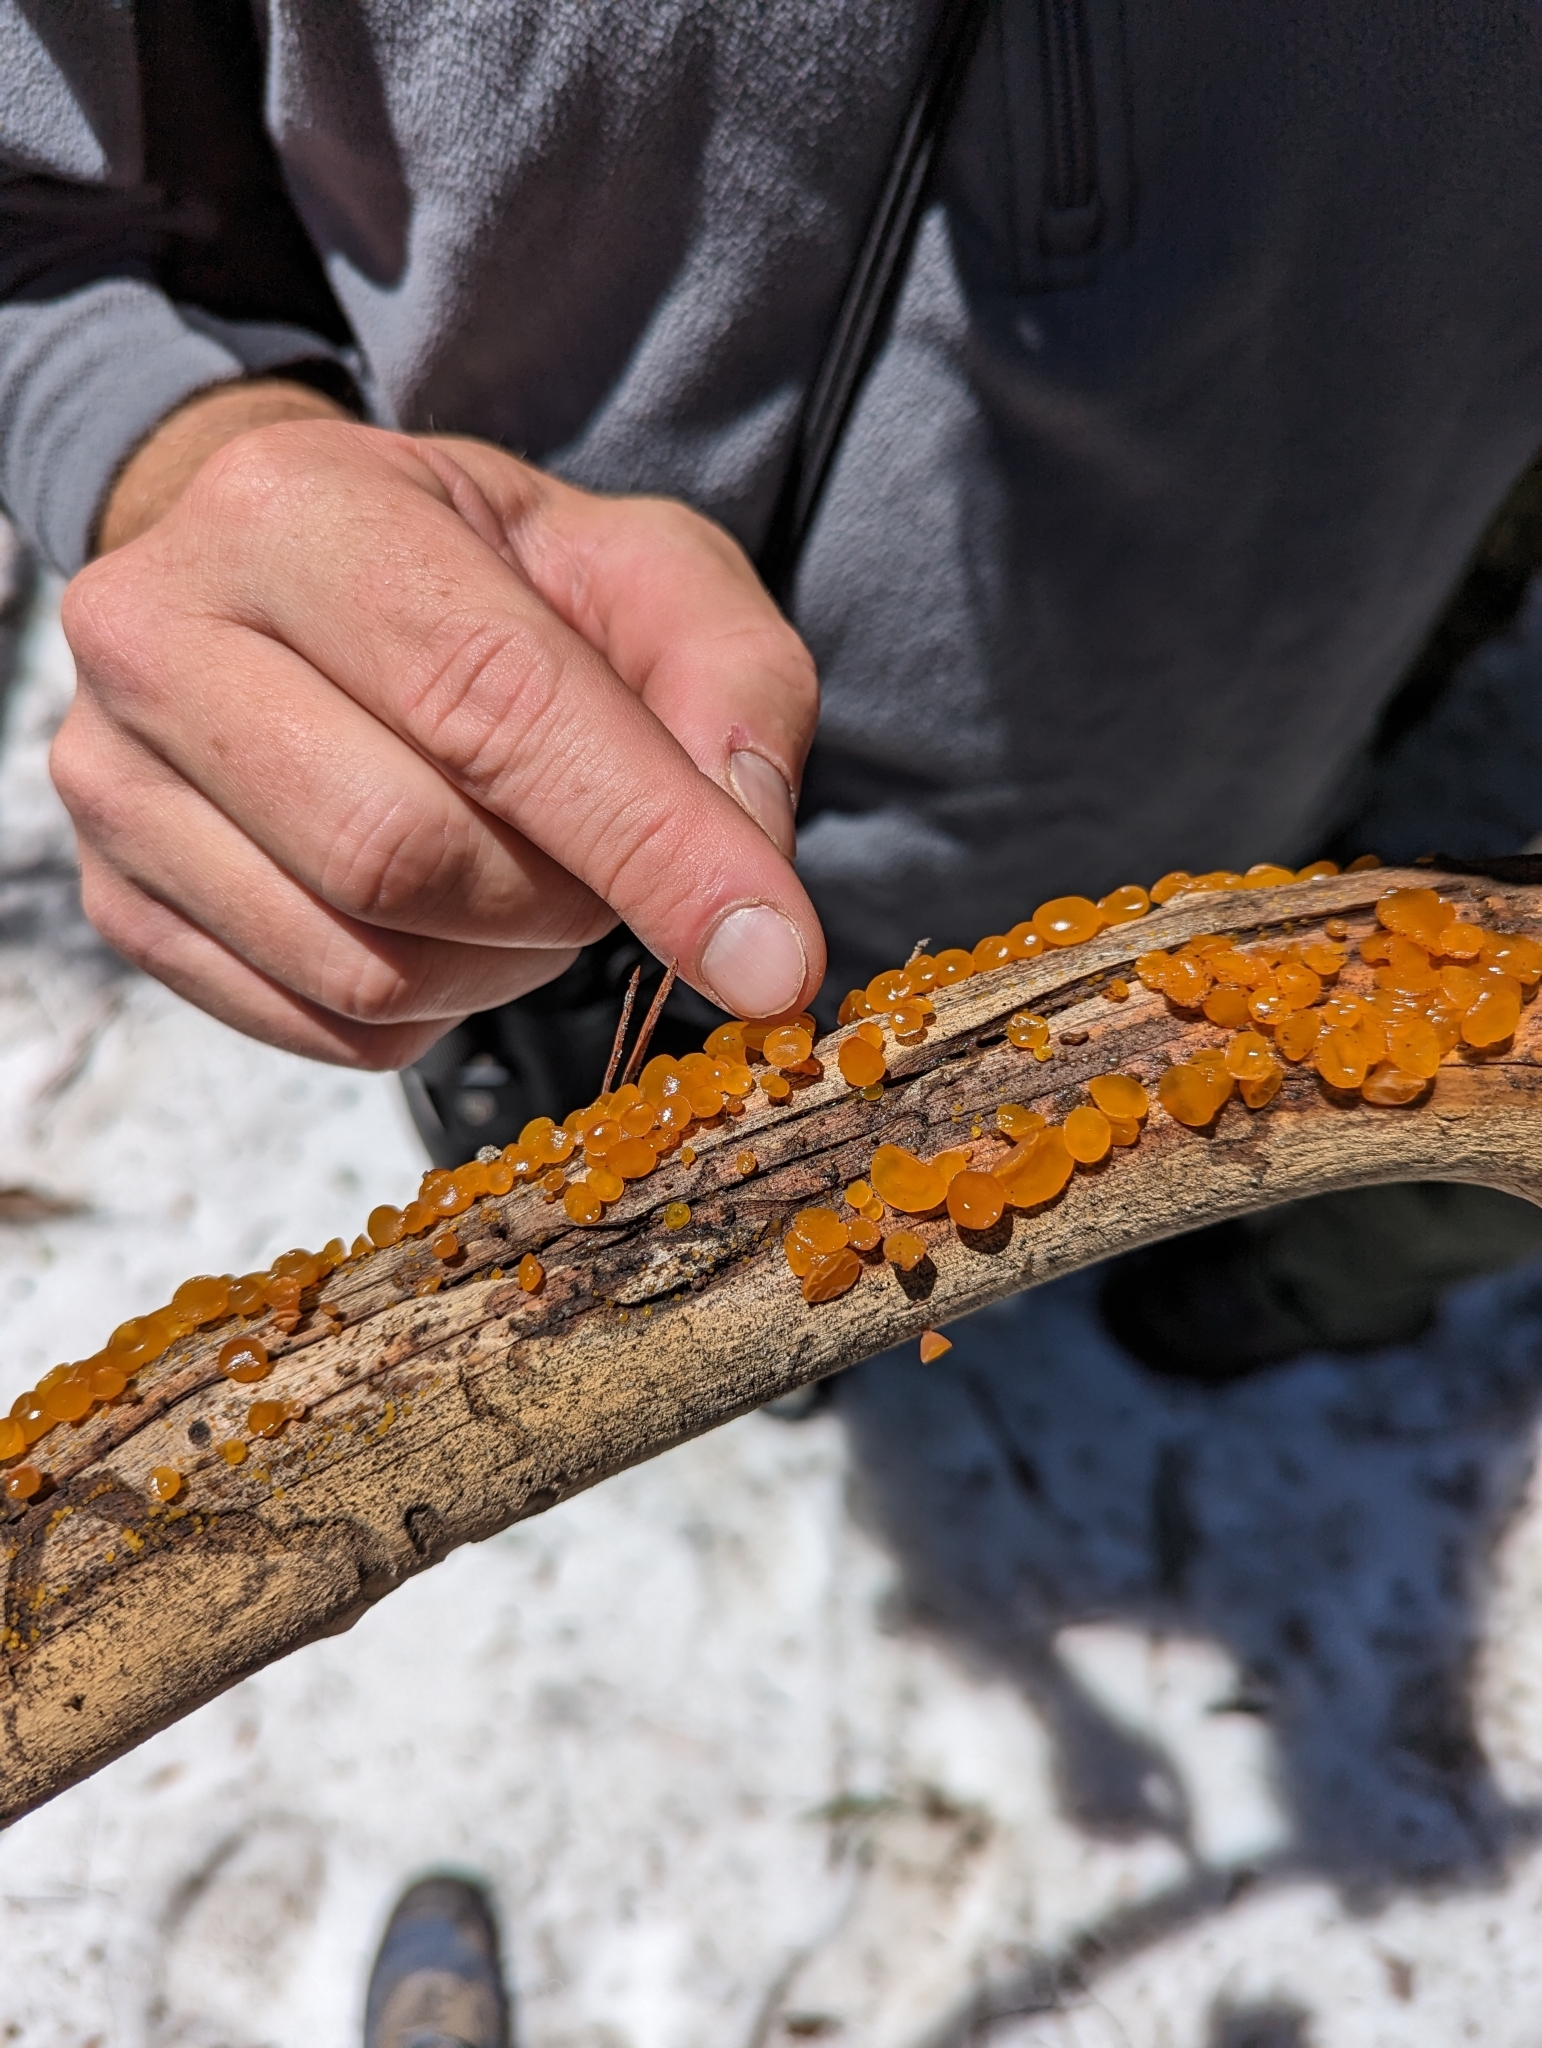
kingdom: Fungi
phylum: Basidiomycota
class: Dacrymycetes
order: Dacrymycetales
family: Dacrymycetaceae
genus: Guepiniopsis
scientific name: Guepiniopsis alpina
